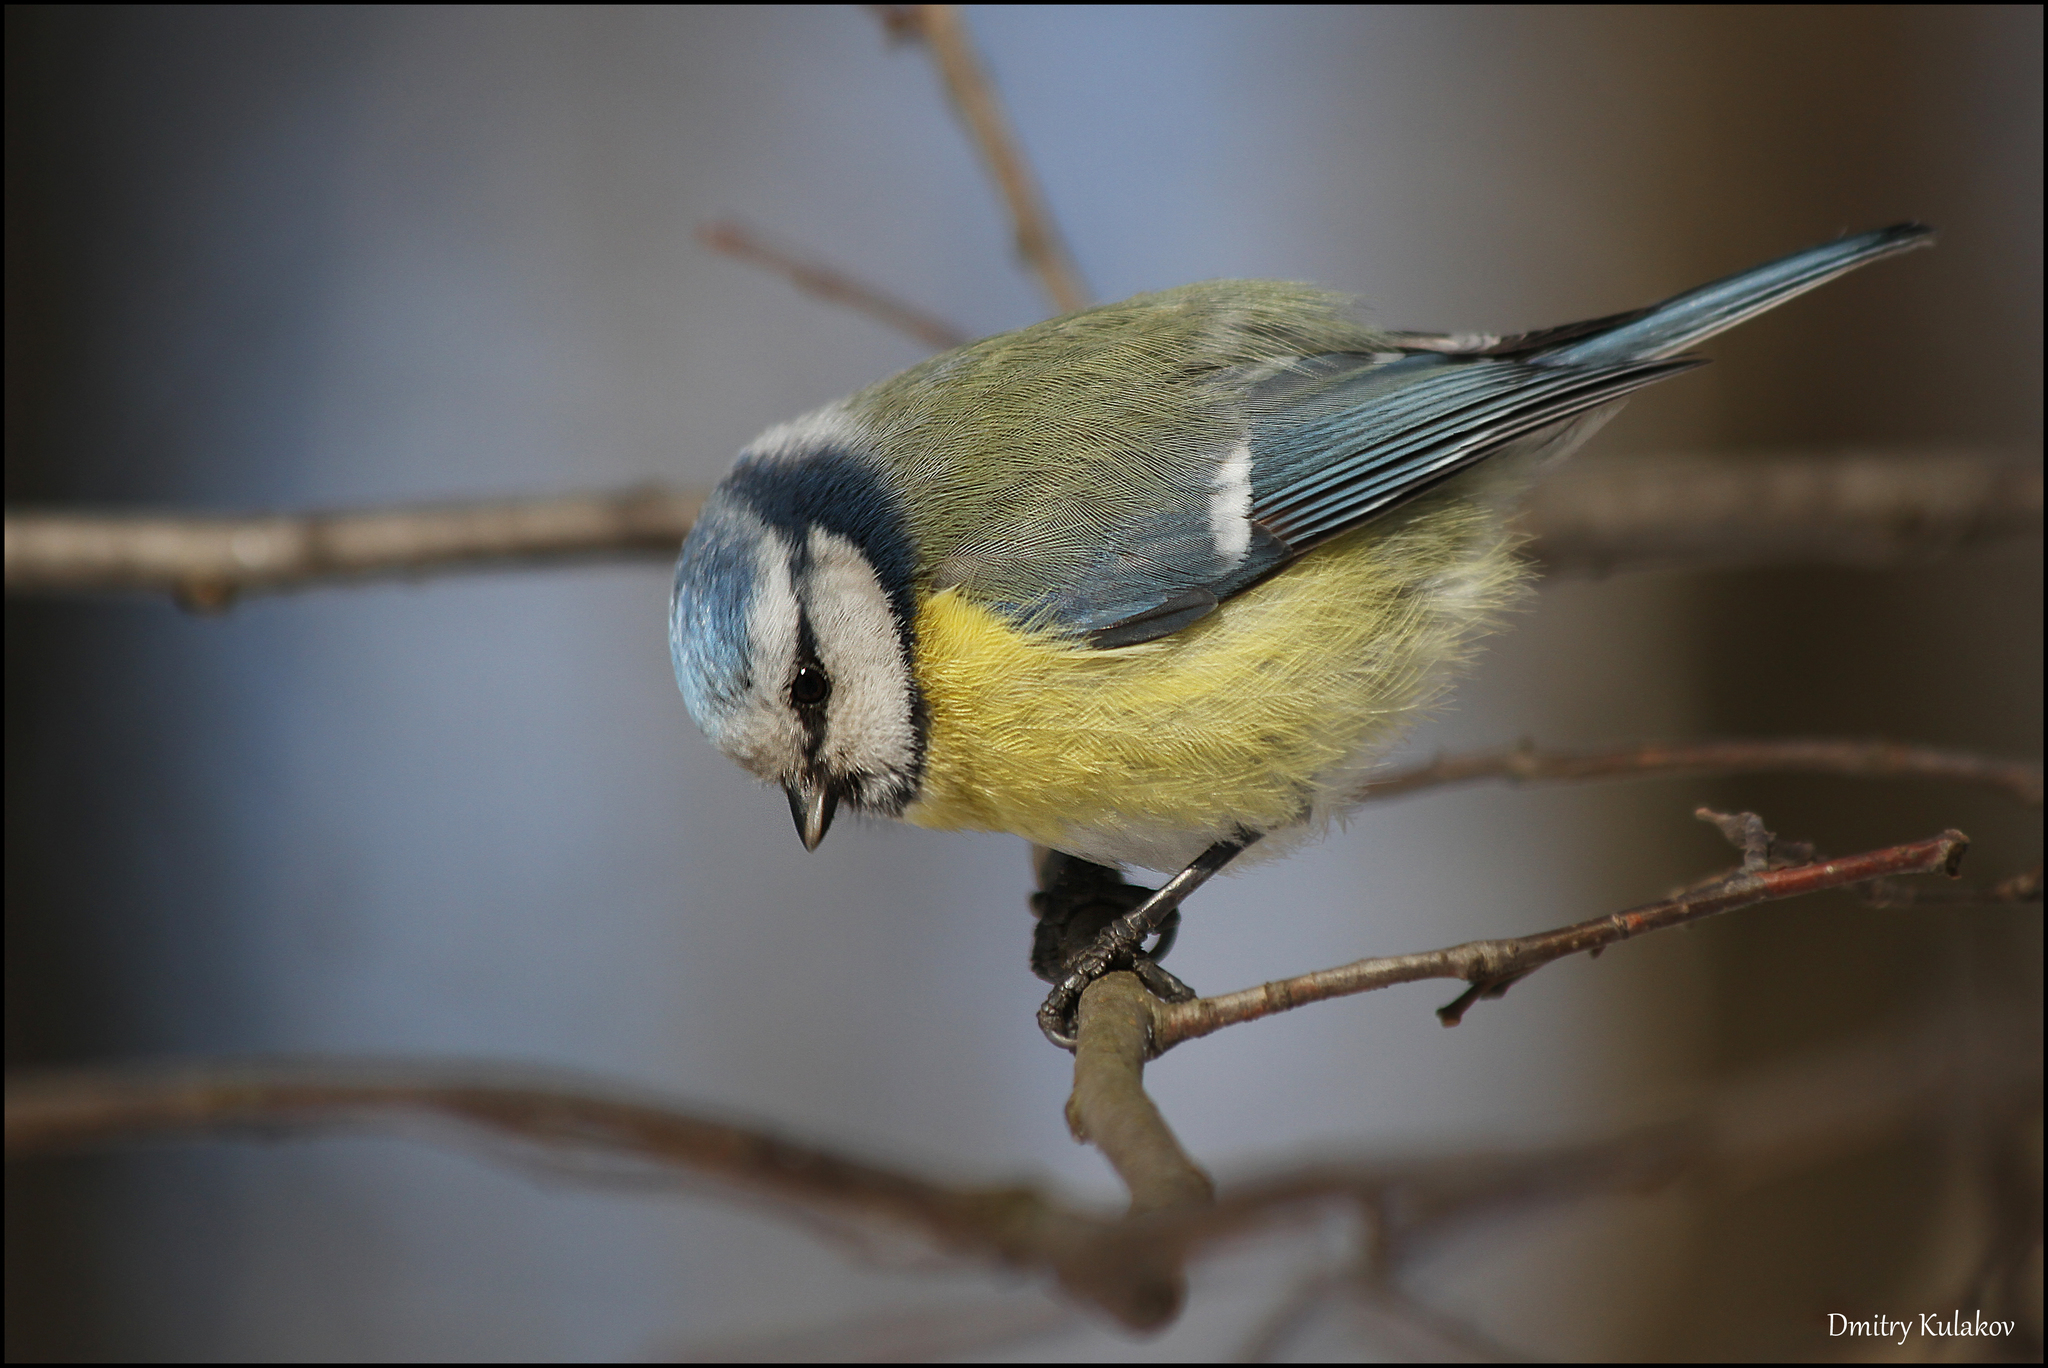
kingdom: Animalia
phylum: Chordata
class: Aves
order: Passeriformes
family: Paridae
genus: Cyanistes
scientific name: Cyanistes caeruleus
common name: Eurasian blue tit
